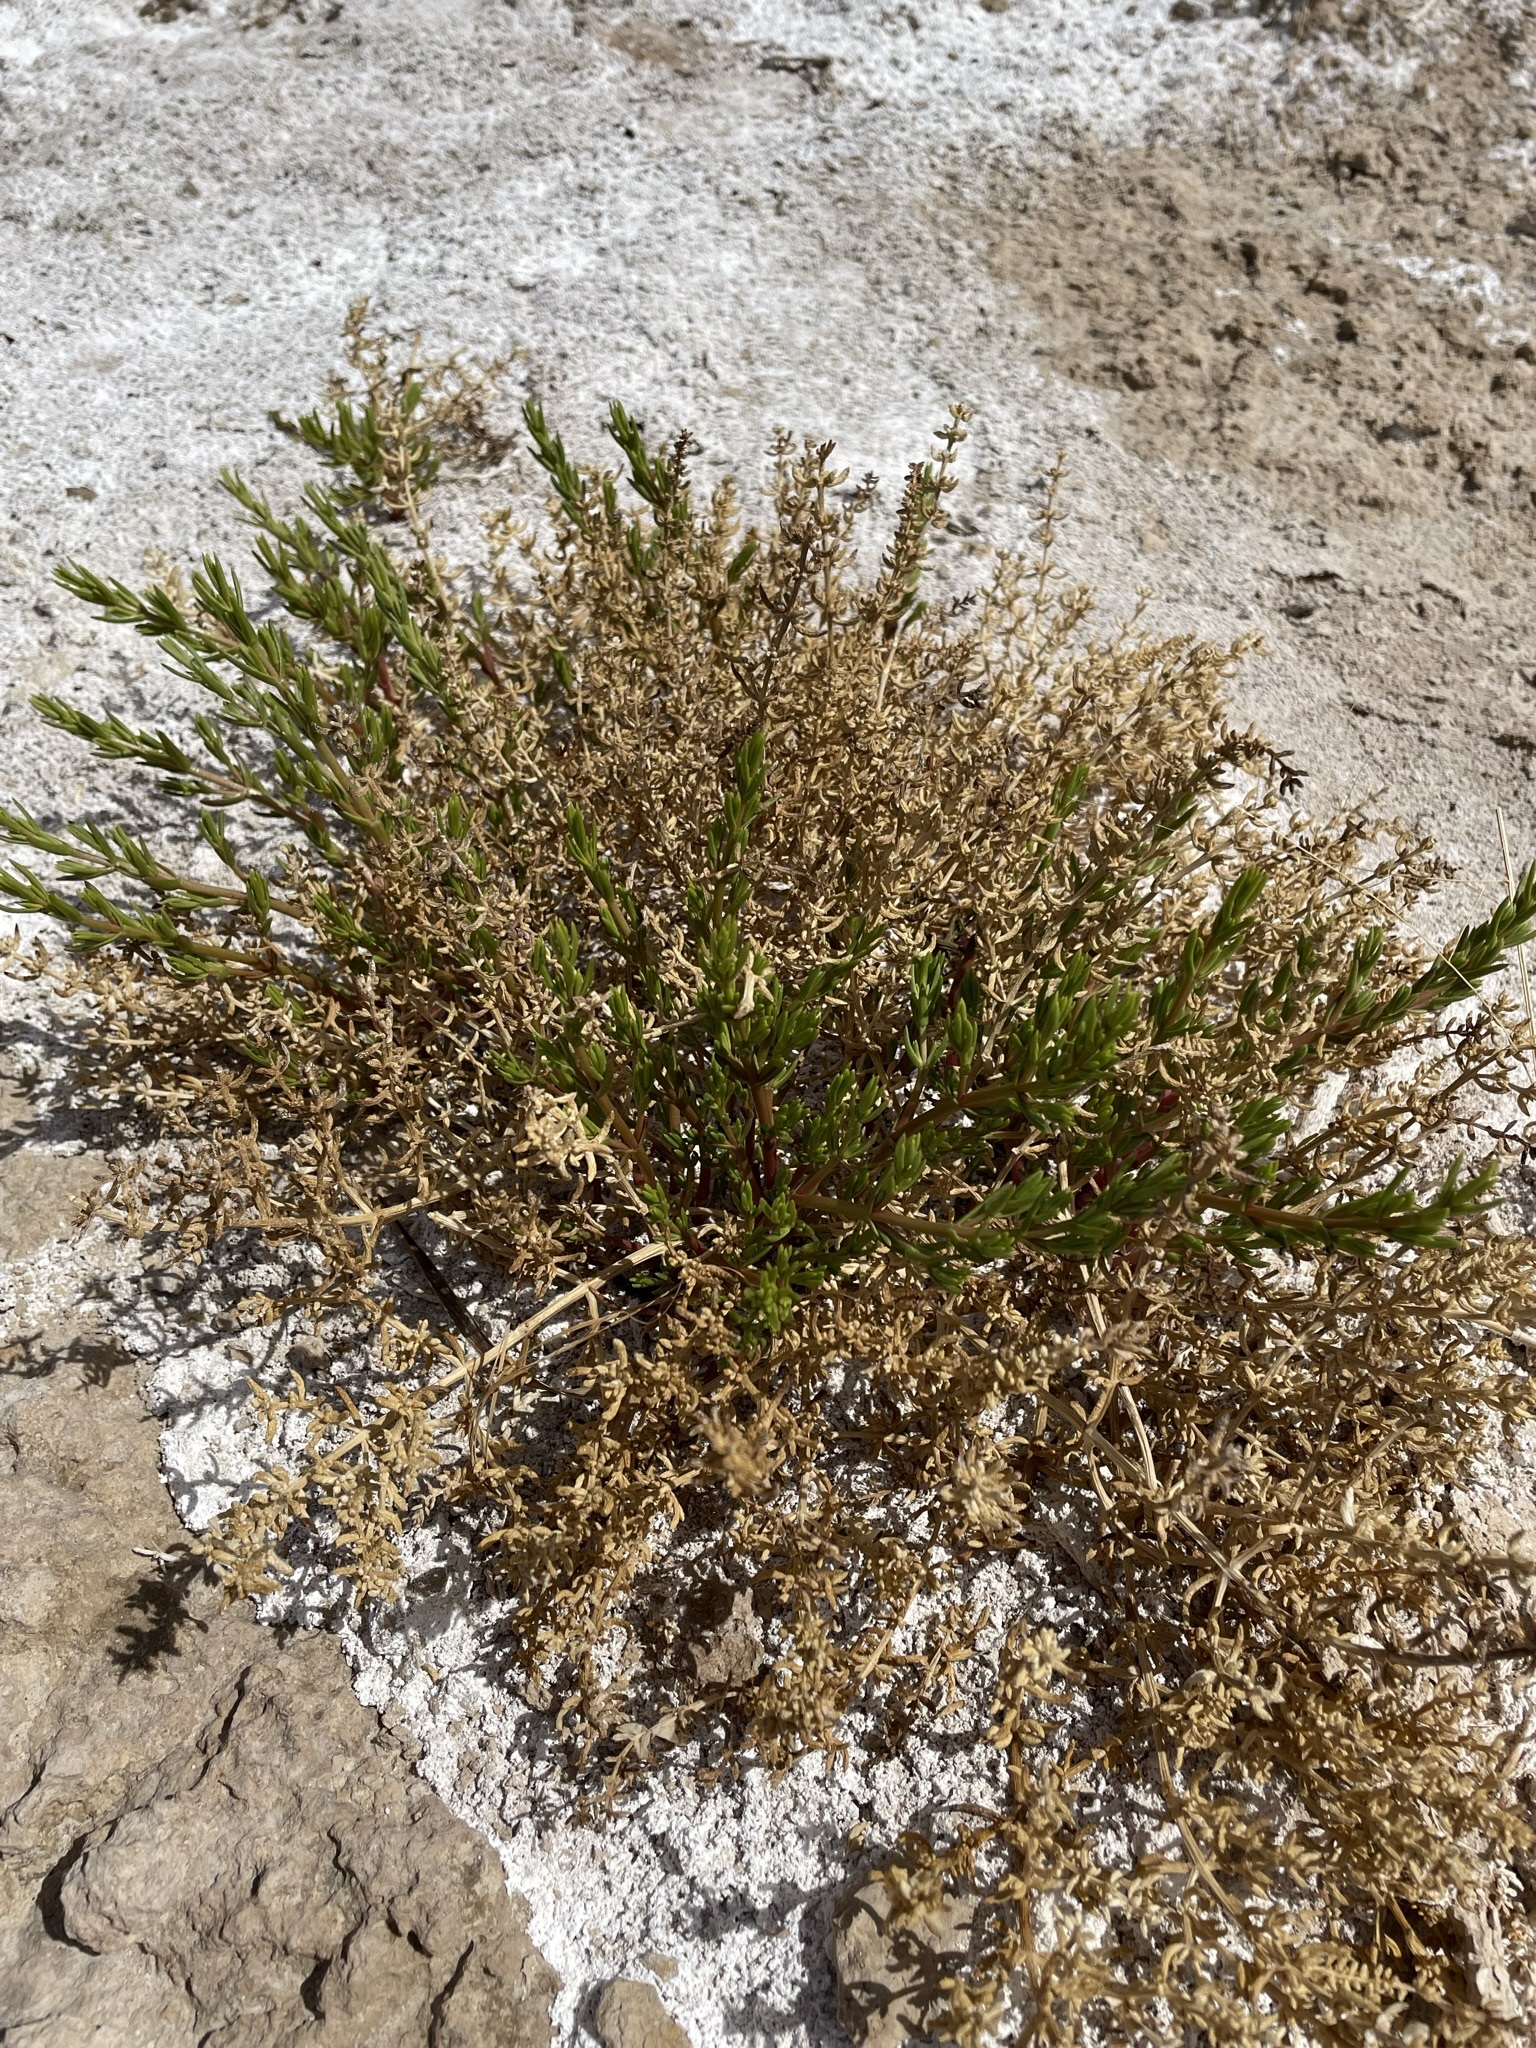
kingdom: Plantae
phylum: Tracheophyta
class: Magnoliopsida
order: Caryophyllales
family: Amaranthaceae
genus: Nitrophila
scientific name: Nitrophila occidentalis
